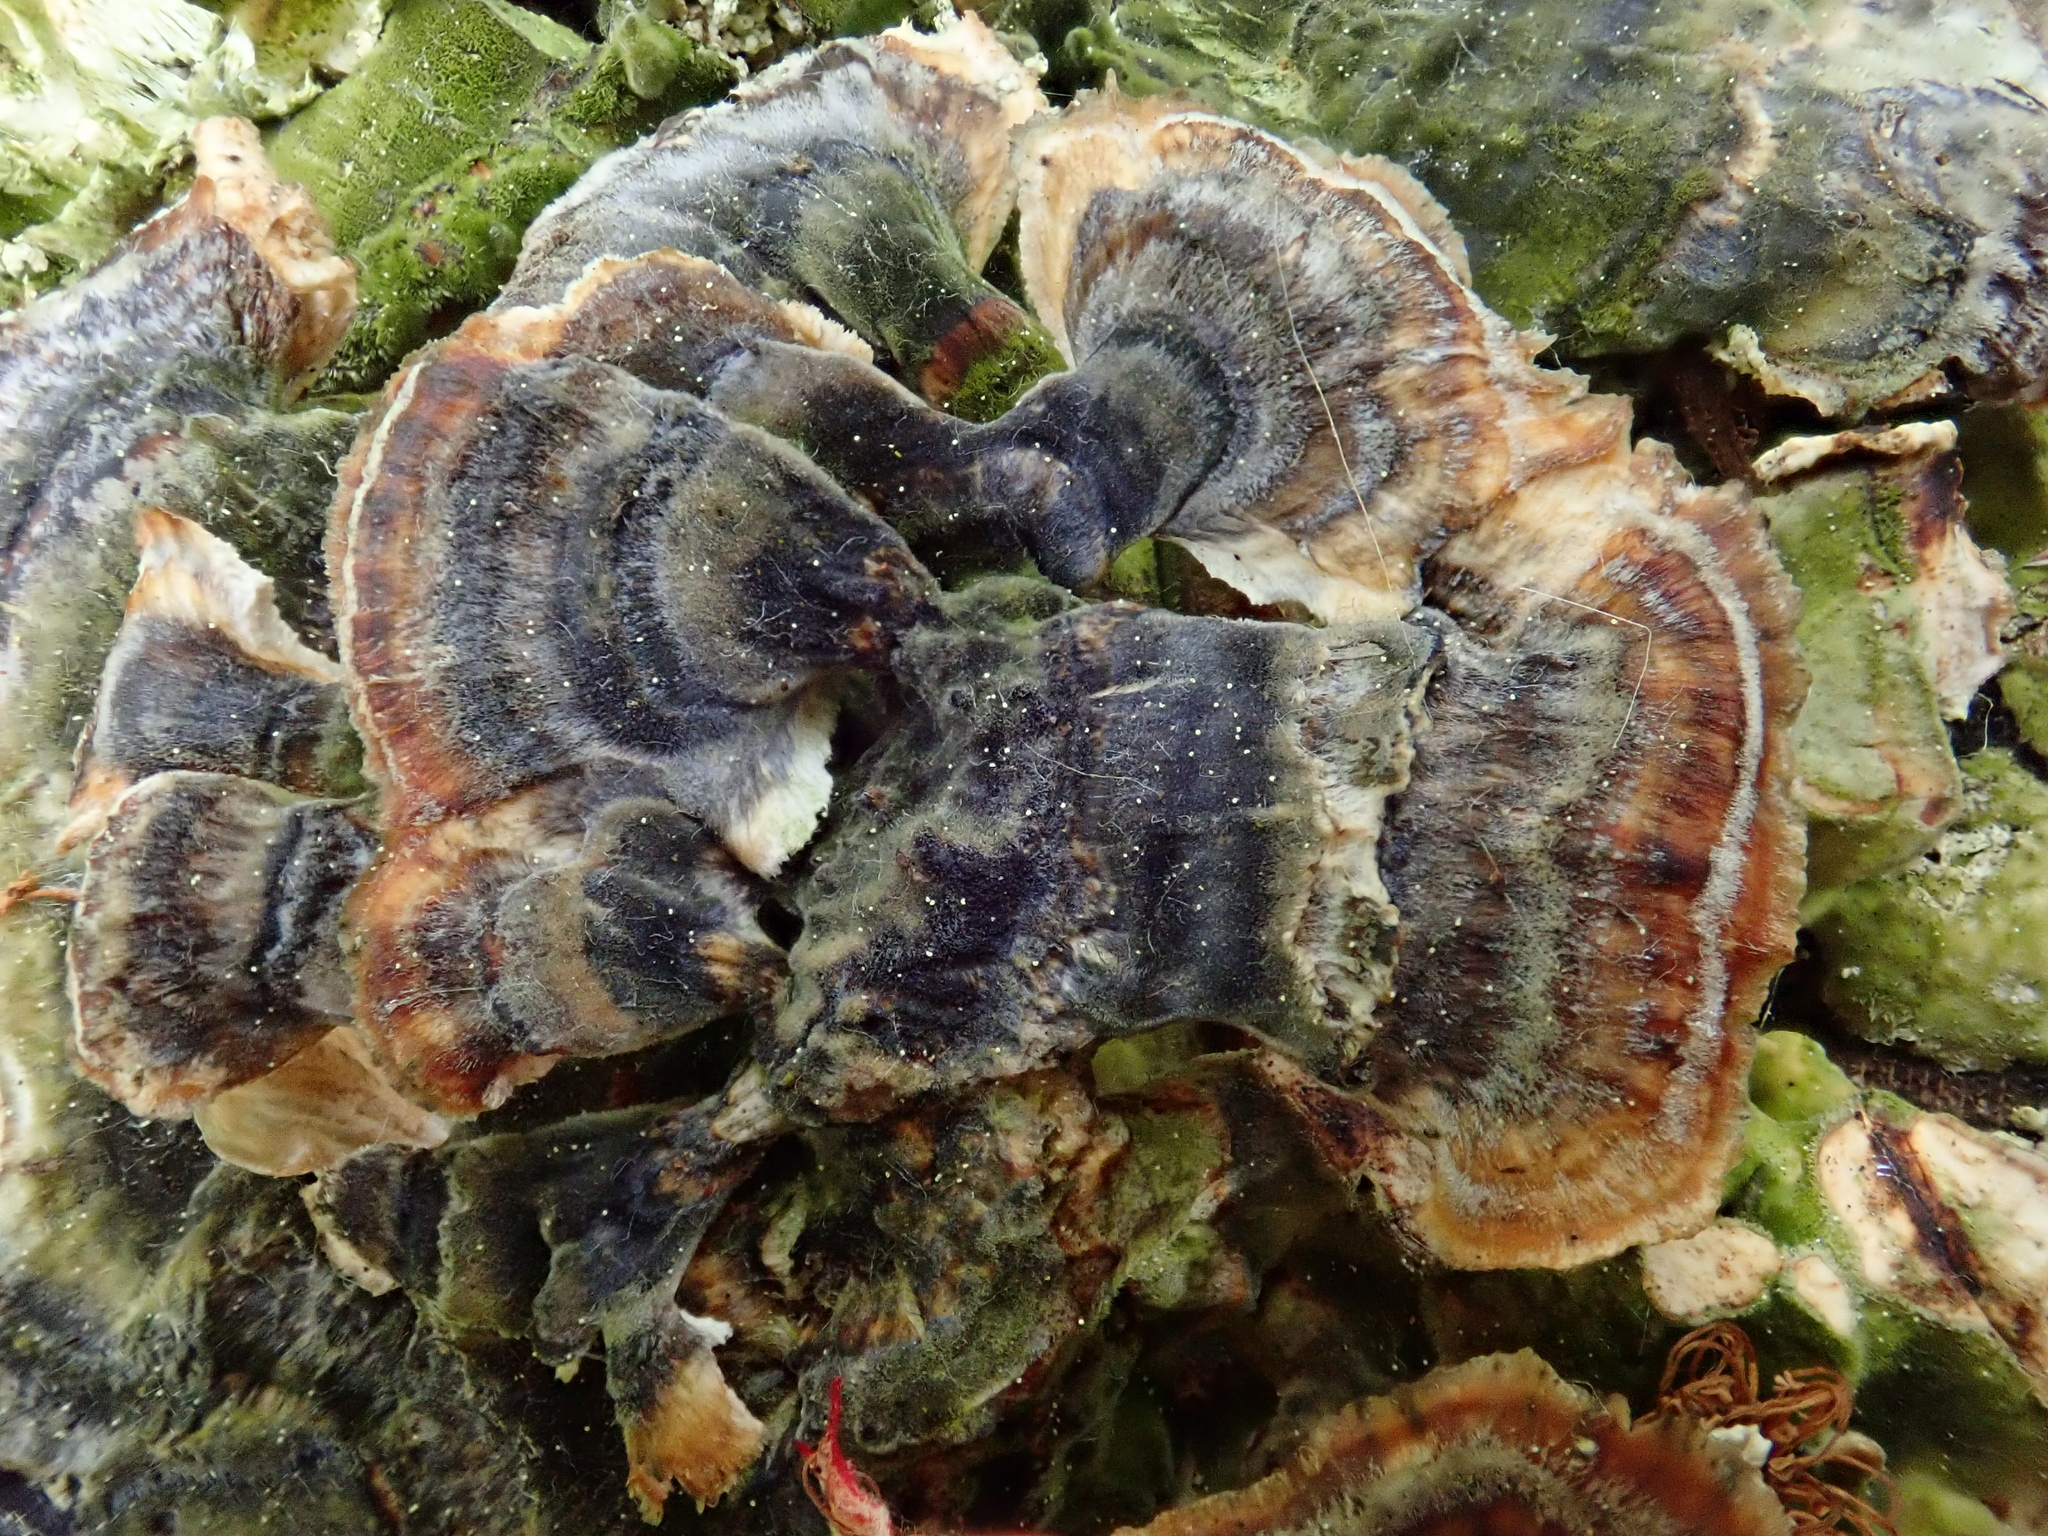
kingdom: Fungi
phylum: Basidiomycota
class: Agaricomycetes
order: Polyporales
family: Polyporaceae
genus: Trametes
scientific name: Trametes versicolor
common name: Turkeytail
